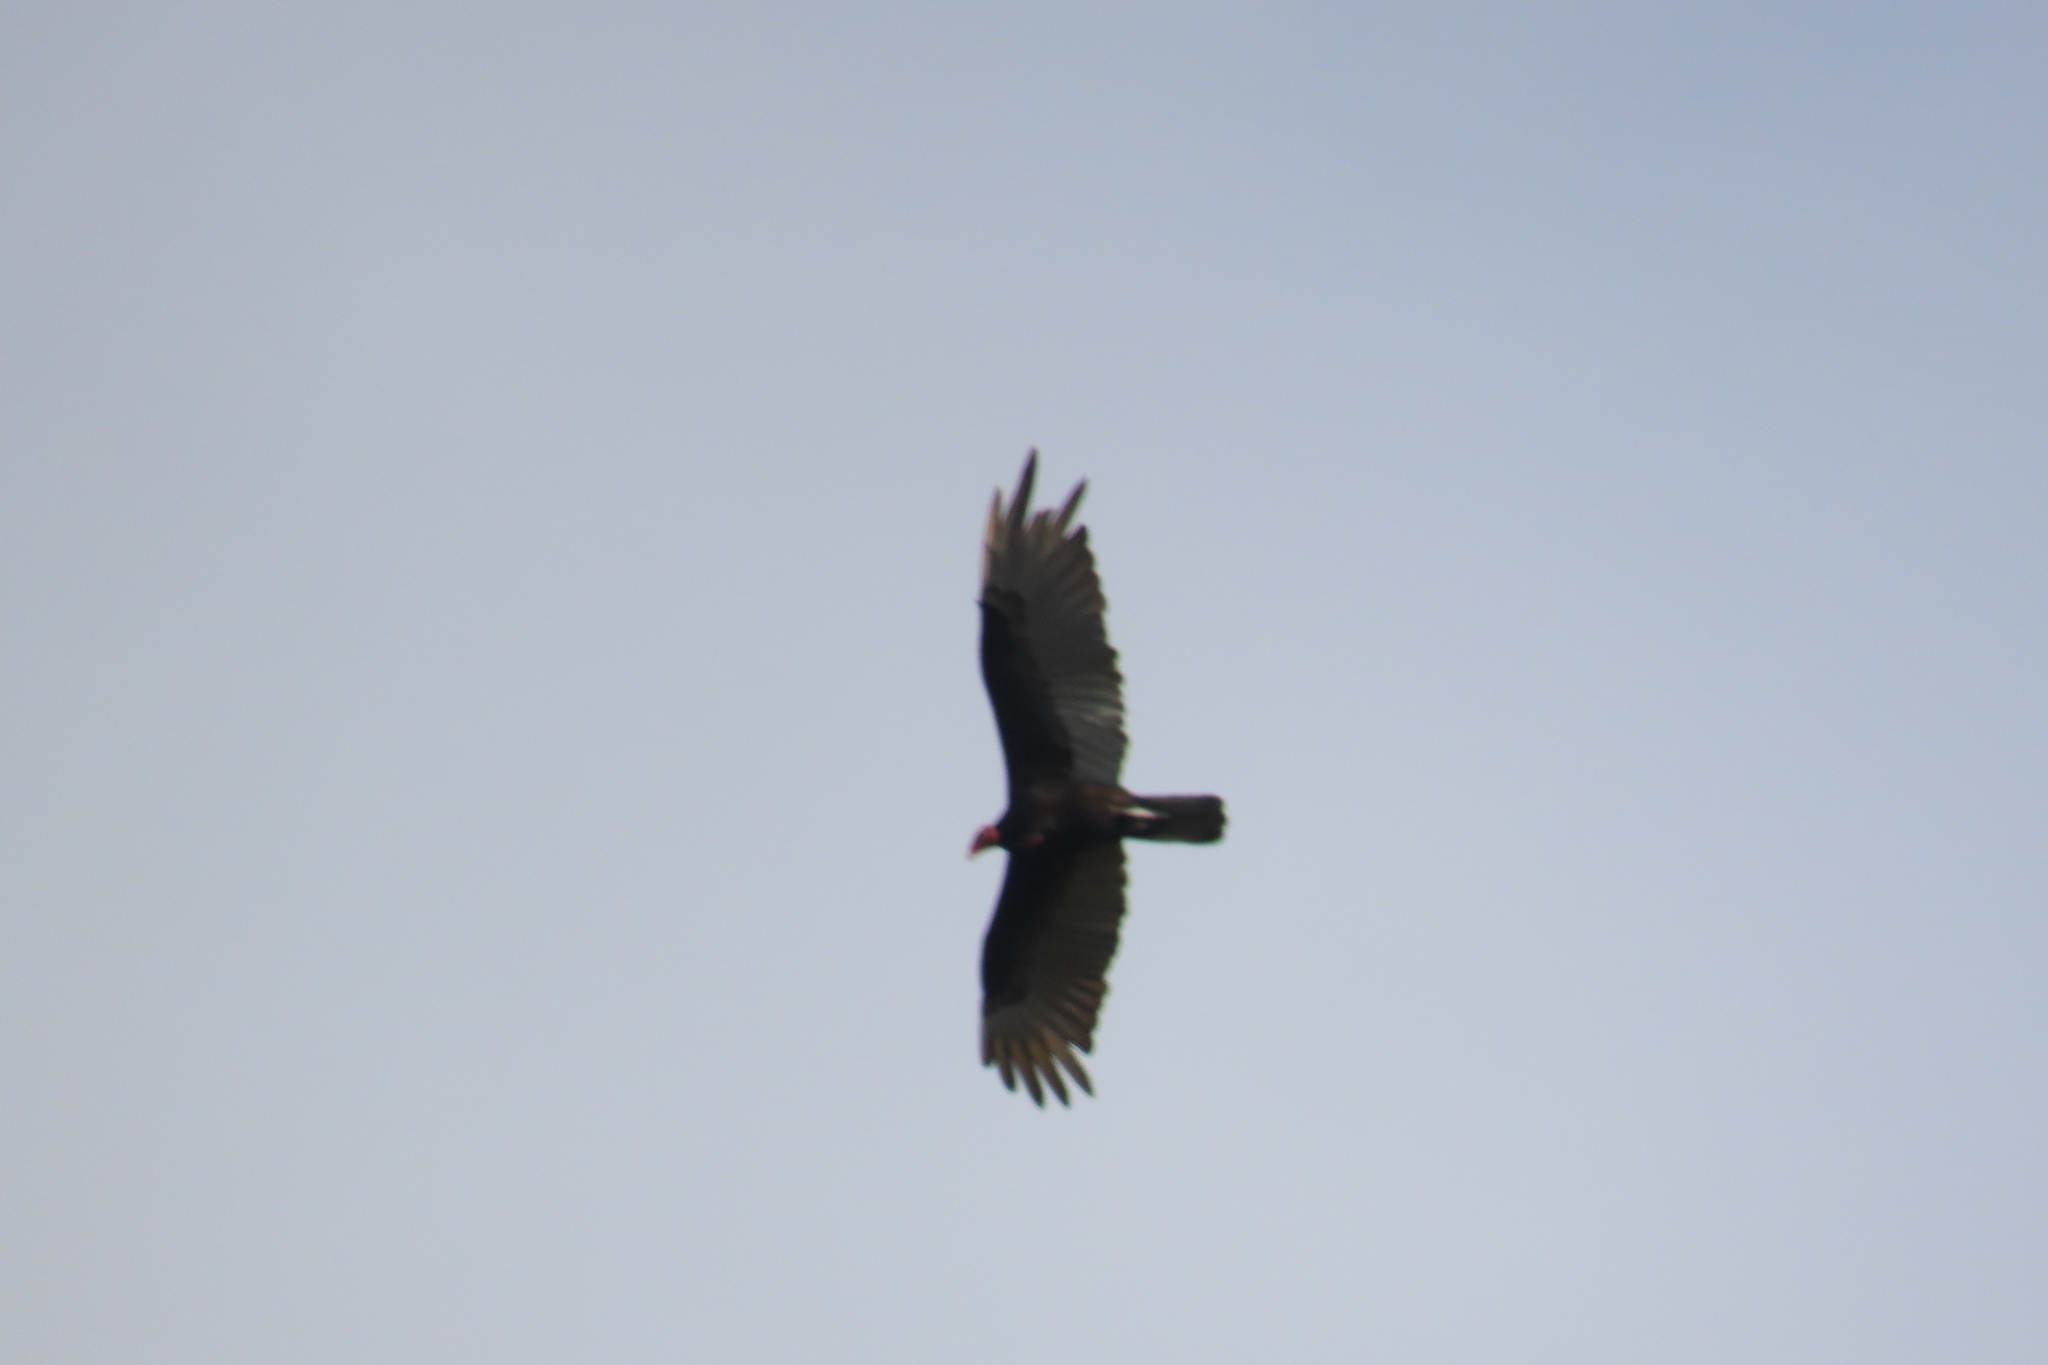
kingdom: Animalia
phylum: Chordata
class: Aves
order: Accipitriformes
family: Cathartidae
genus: Cathartes
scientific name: Cathartes aura
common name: Turkey vulture
